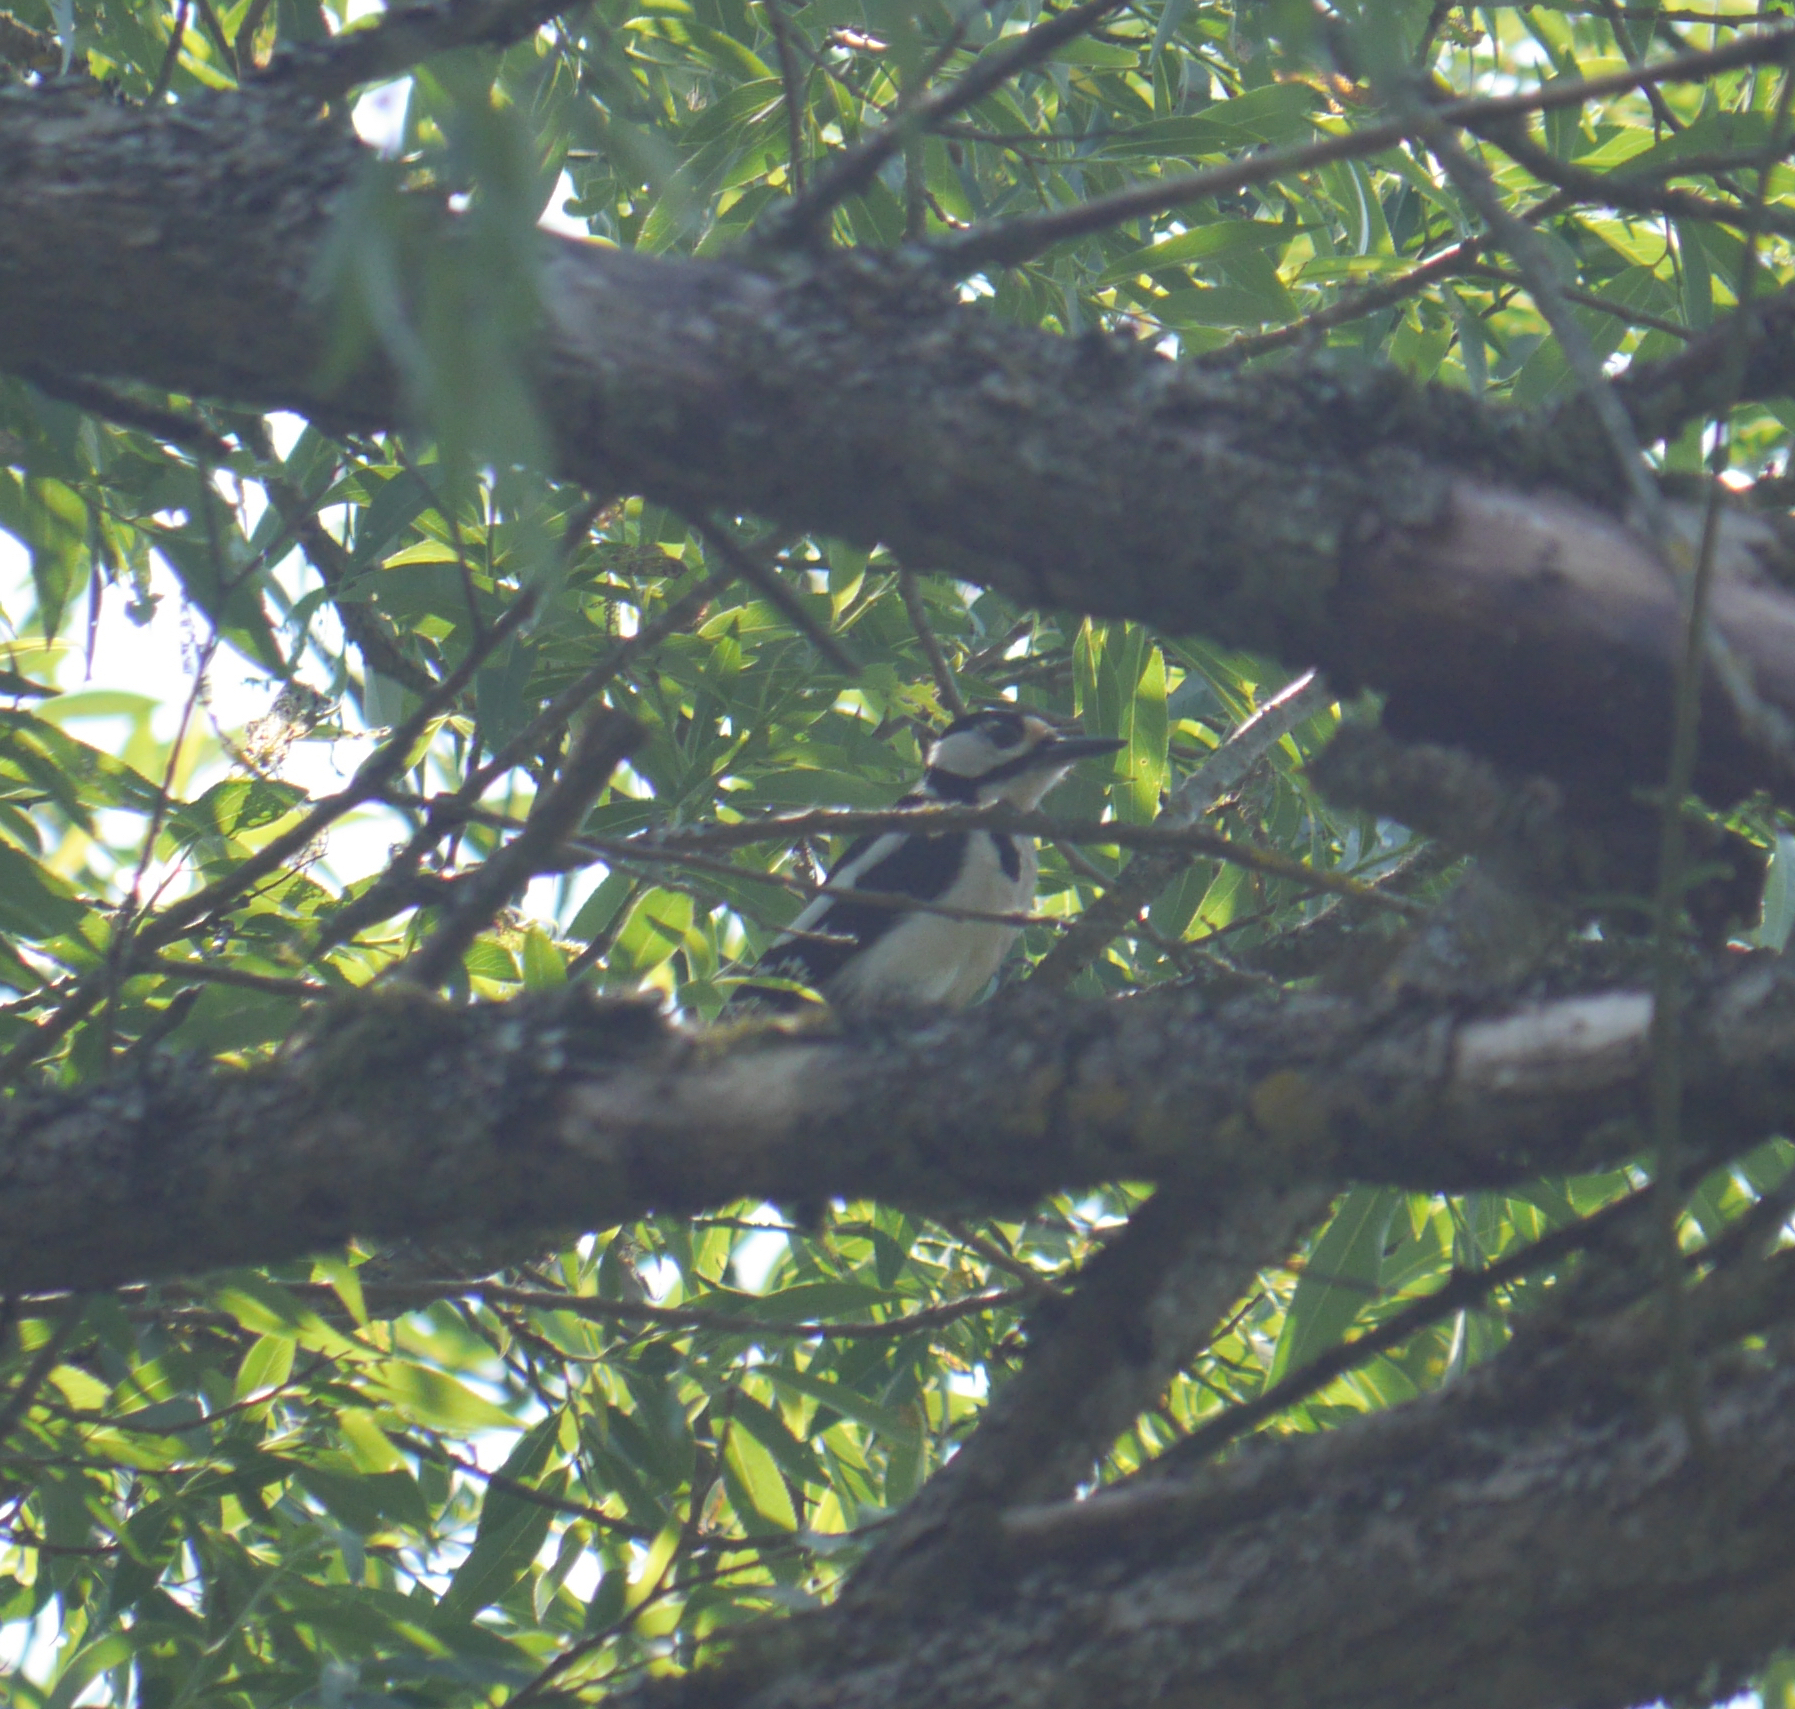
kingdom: Animalia
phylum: Chordata
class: Aves
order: Piciformes
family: Picidae
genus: Dendrocopos
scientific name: Dendrocopos major
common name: Great spotted woodpecker
